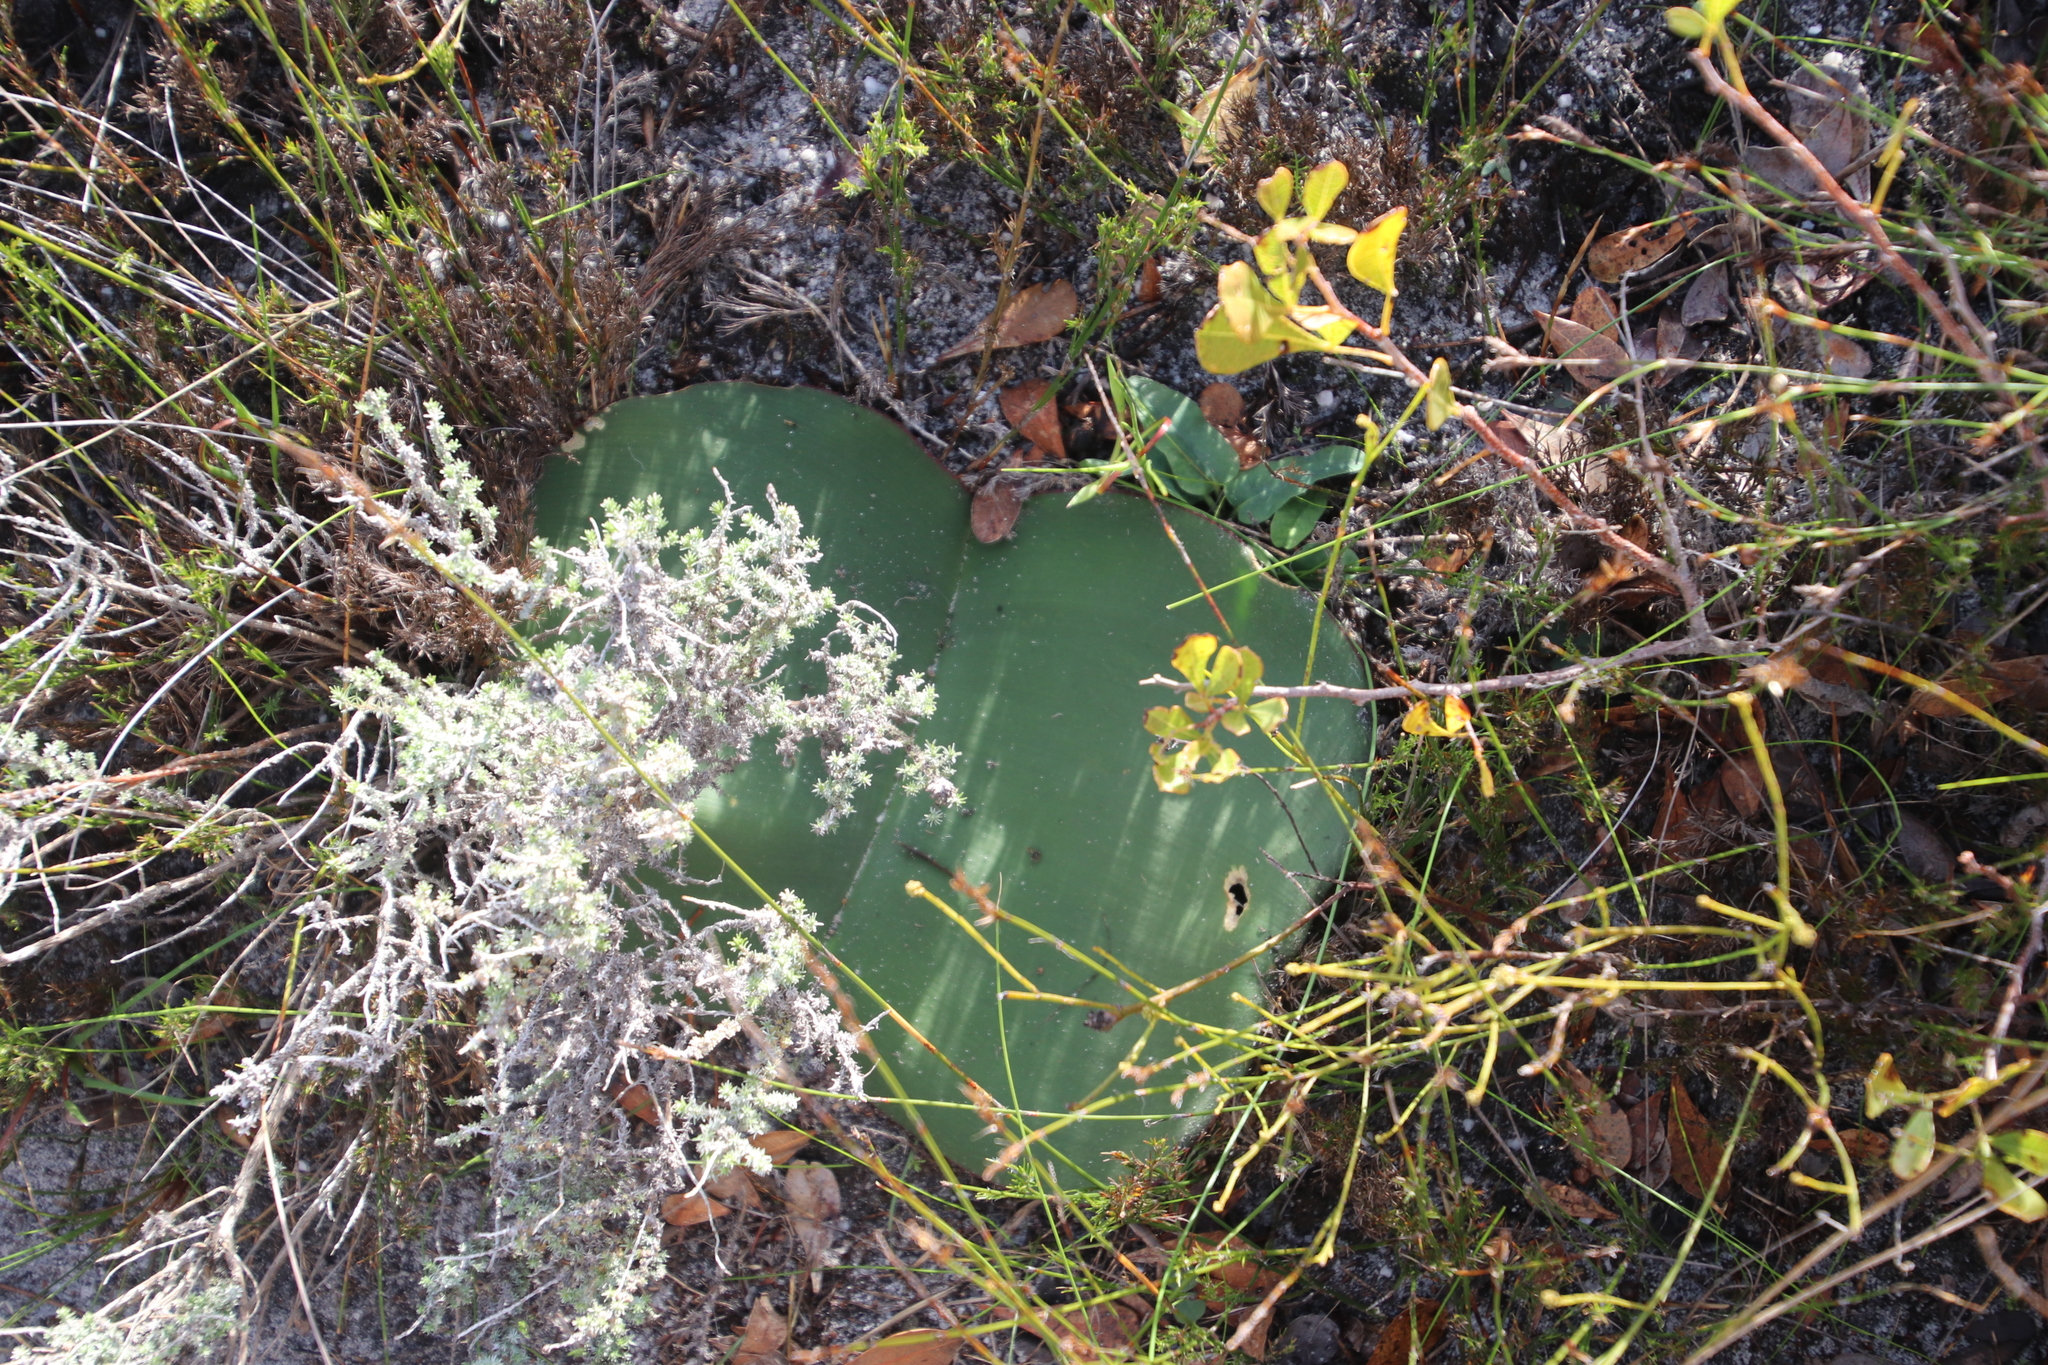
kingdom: Plantae
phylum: Tracheophyta
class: Liliopsida
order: Asparagales
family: Amaryllidaceae
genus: Haemanthus
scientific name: Haemanthus sanguineus
